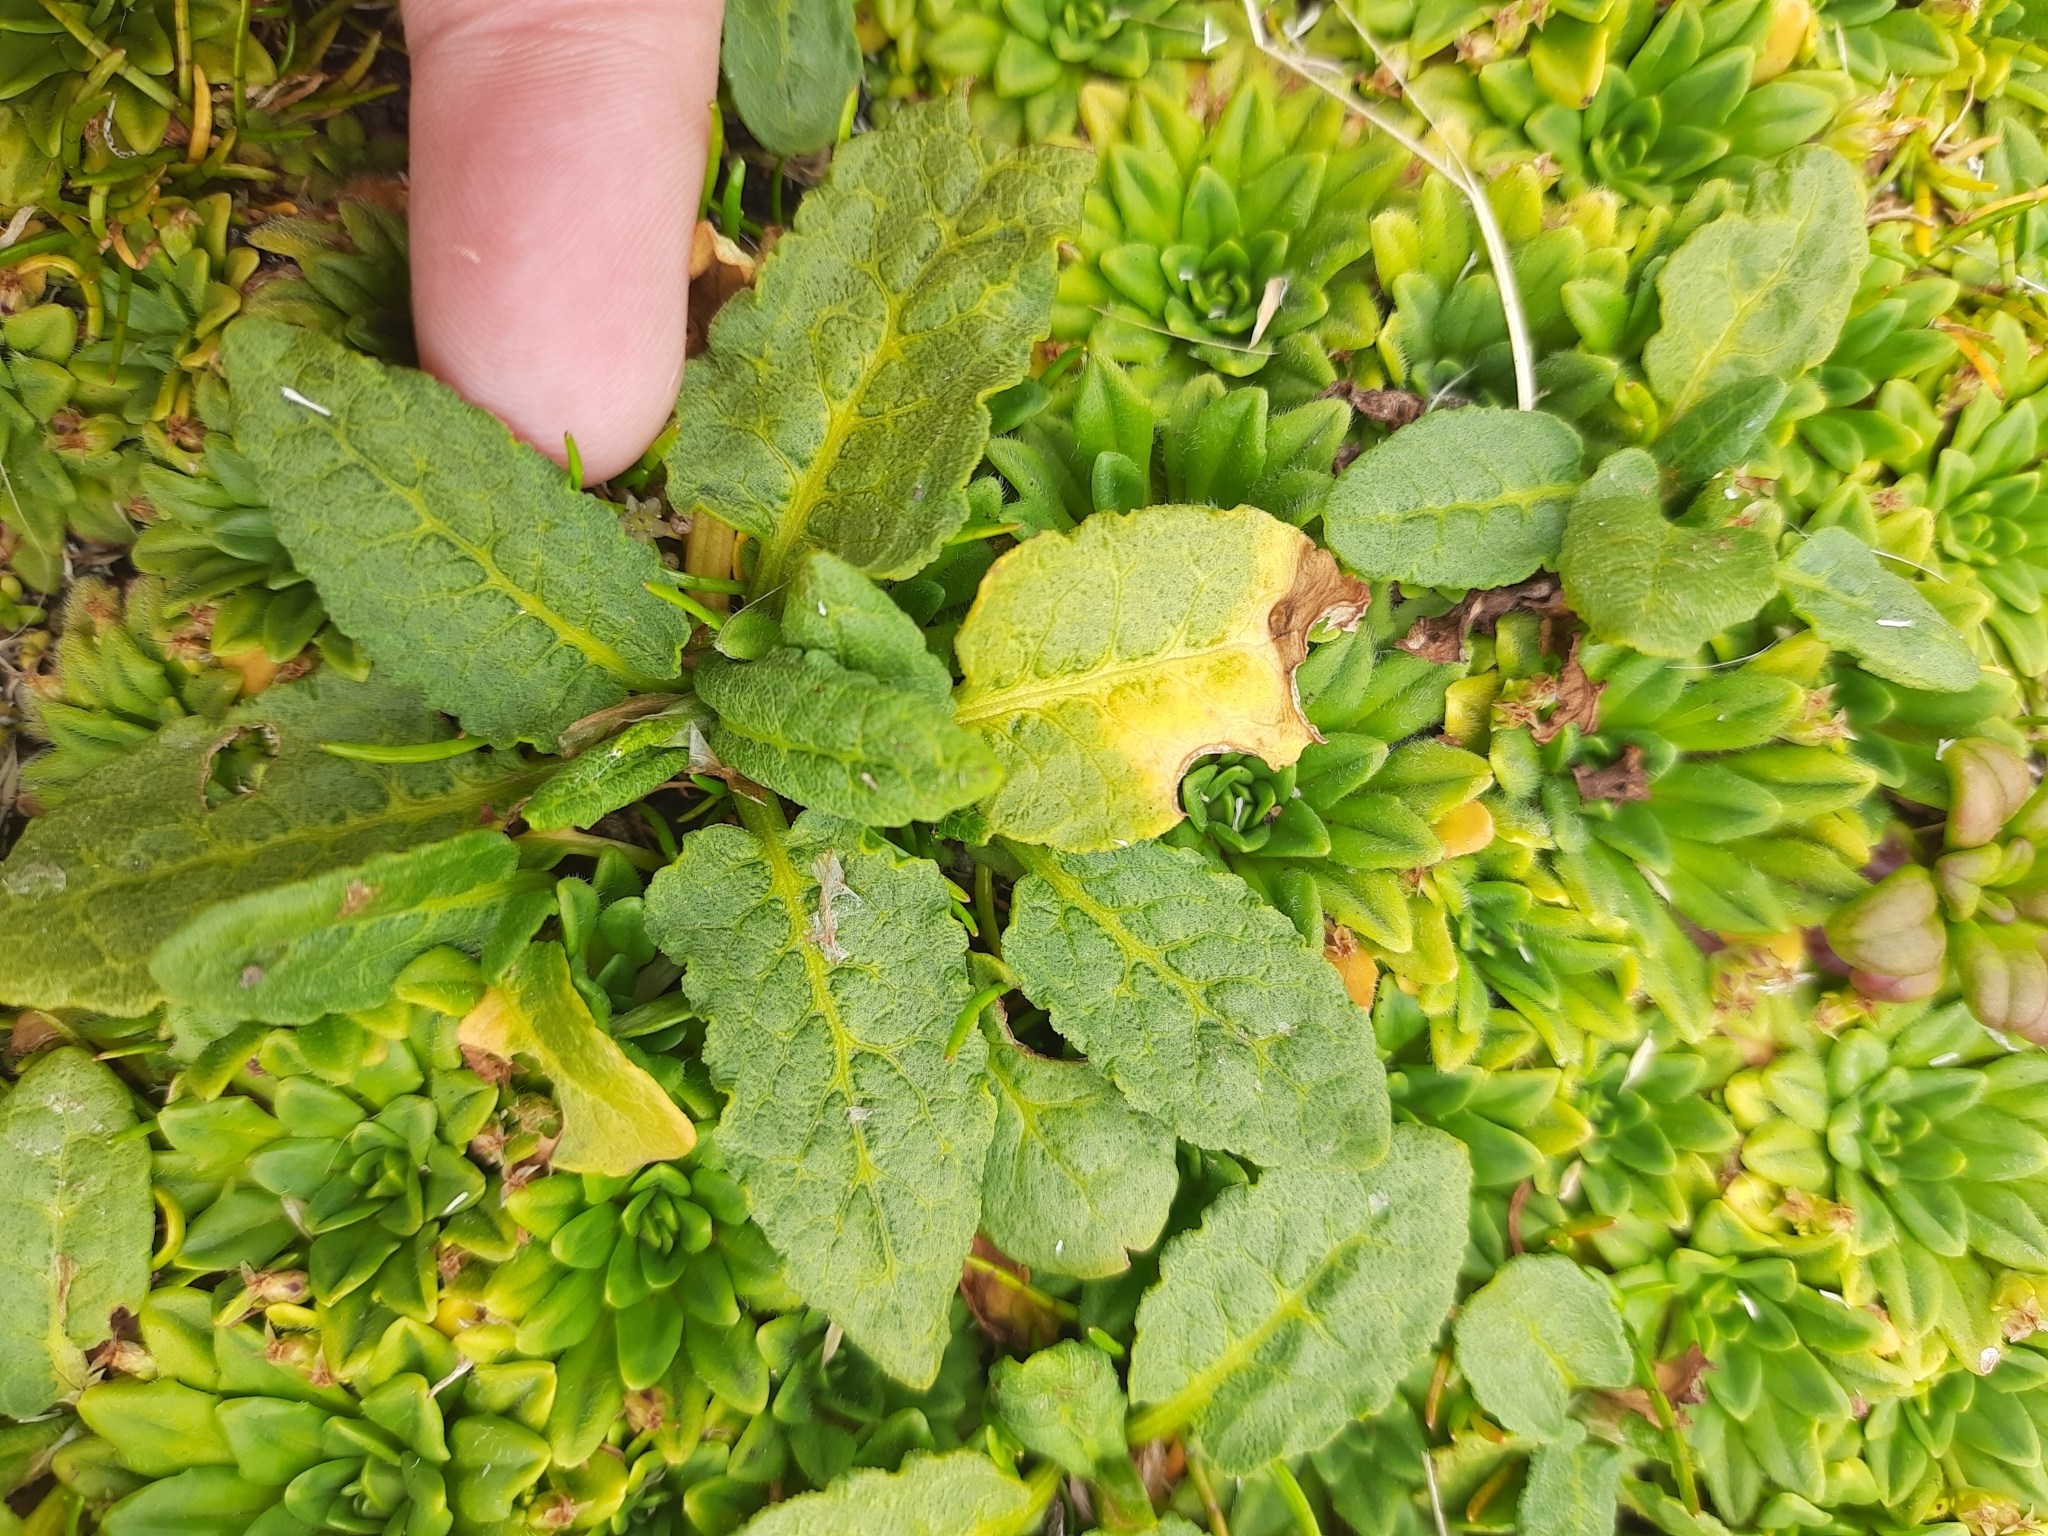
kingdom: Plantae
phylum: Tracheophyta
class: Magnoliopsida
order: Caryophyllales
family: Polygonaceae
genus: Rumex
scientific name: Rumex neglectus
